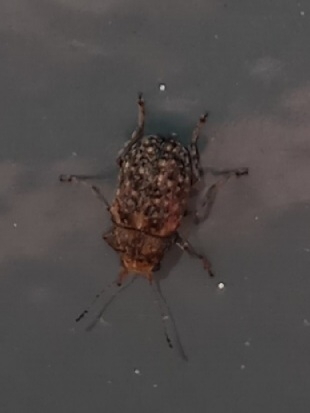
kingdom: Animalia
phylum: Arthropoda
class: Insecta
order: Coleoptera
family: Anthribidae
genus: Araecerus
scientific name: Araecerus fasciculatus
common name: Coffee bean weevil
